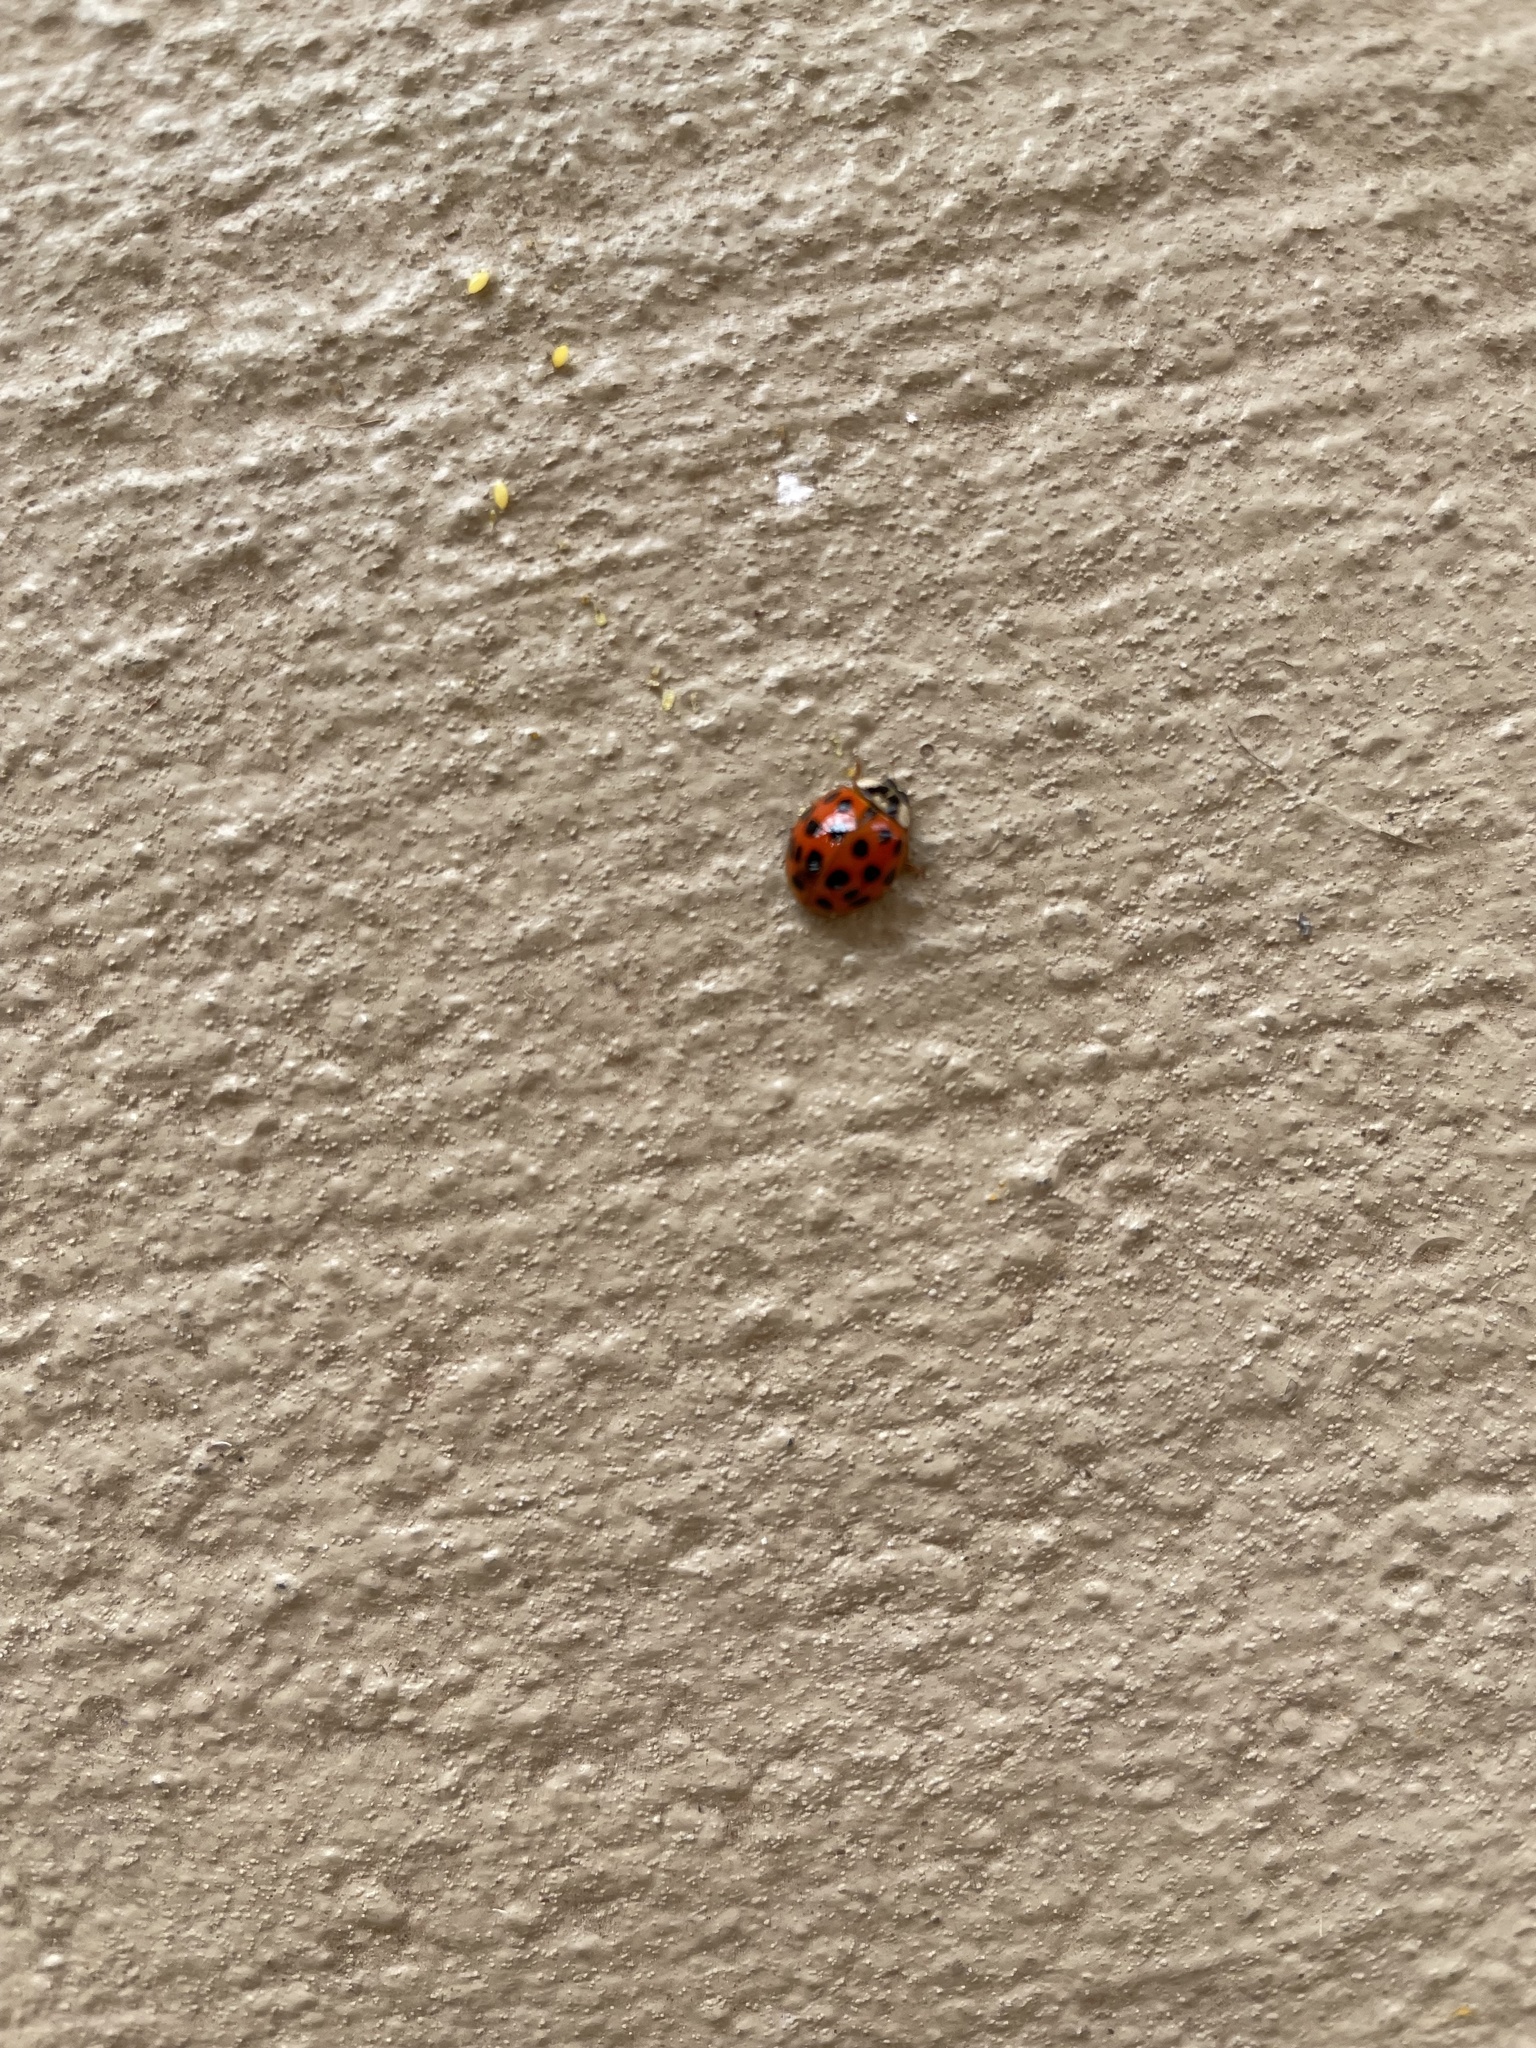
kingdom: Animalia
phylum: Arthropoda
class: Insecta
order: Coleoptera
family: Coccinellidae
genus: Harmonia
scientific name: Harmonia axyridis
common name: Harlequin ladybird
